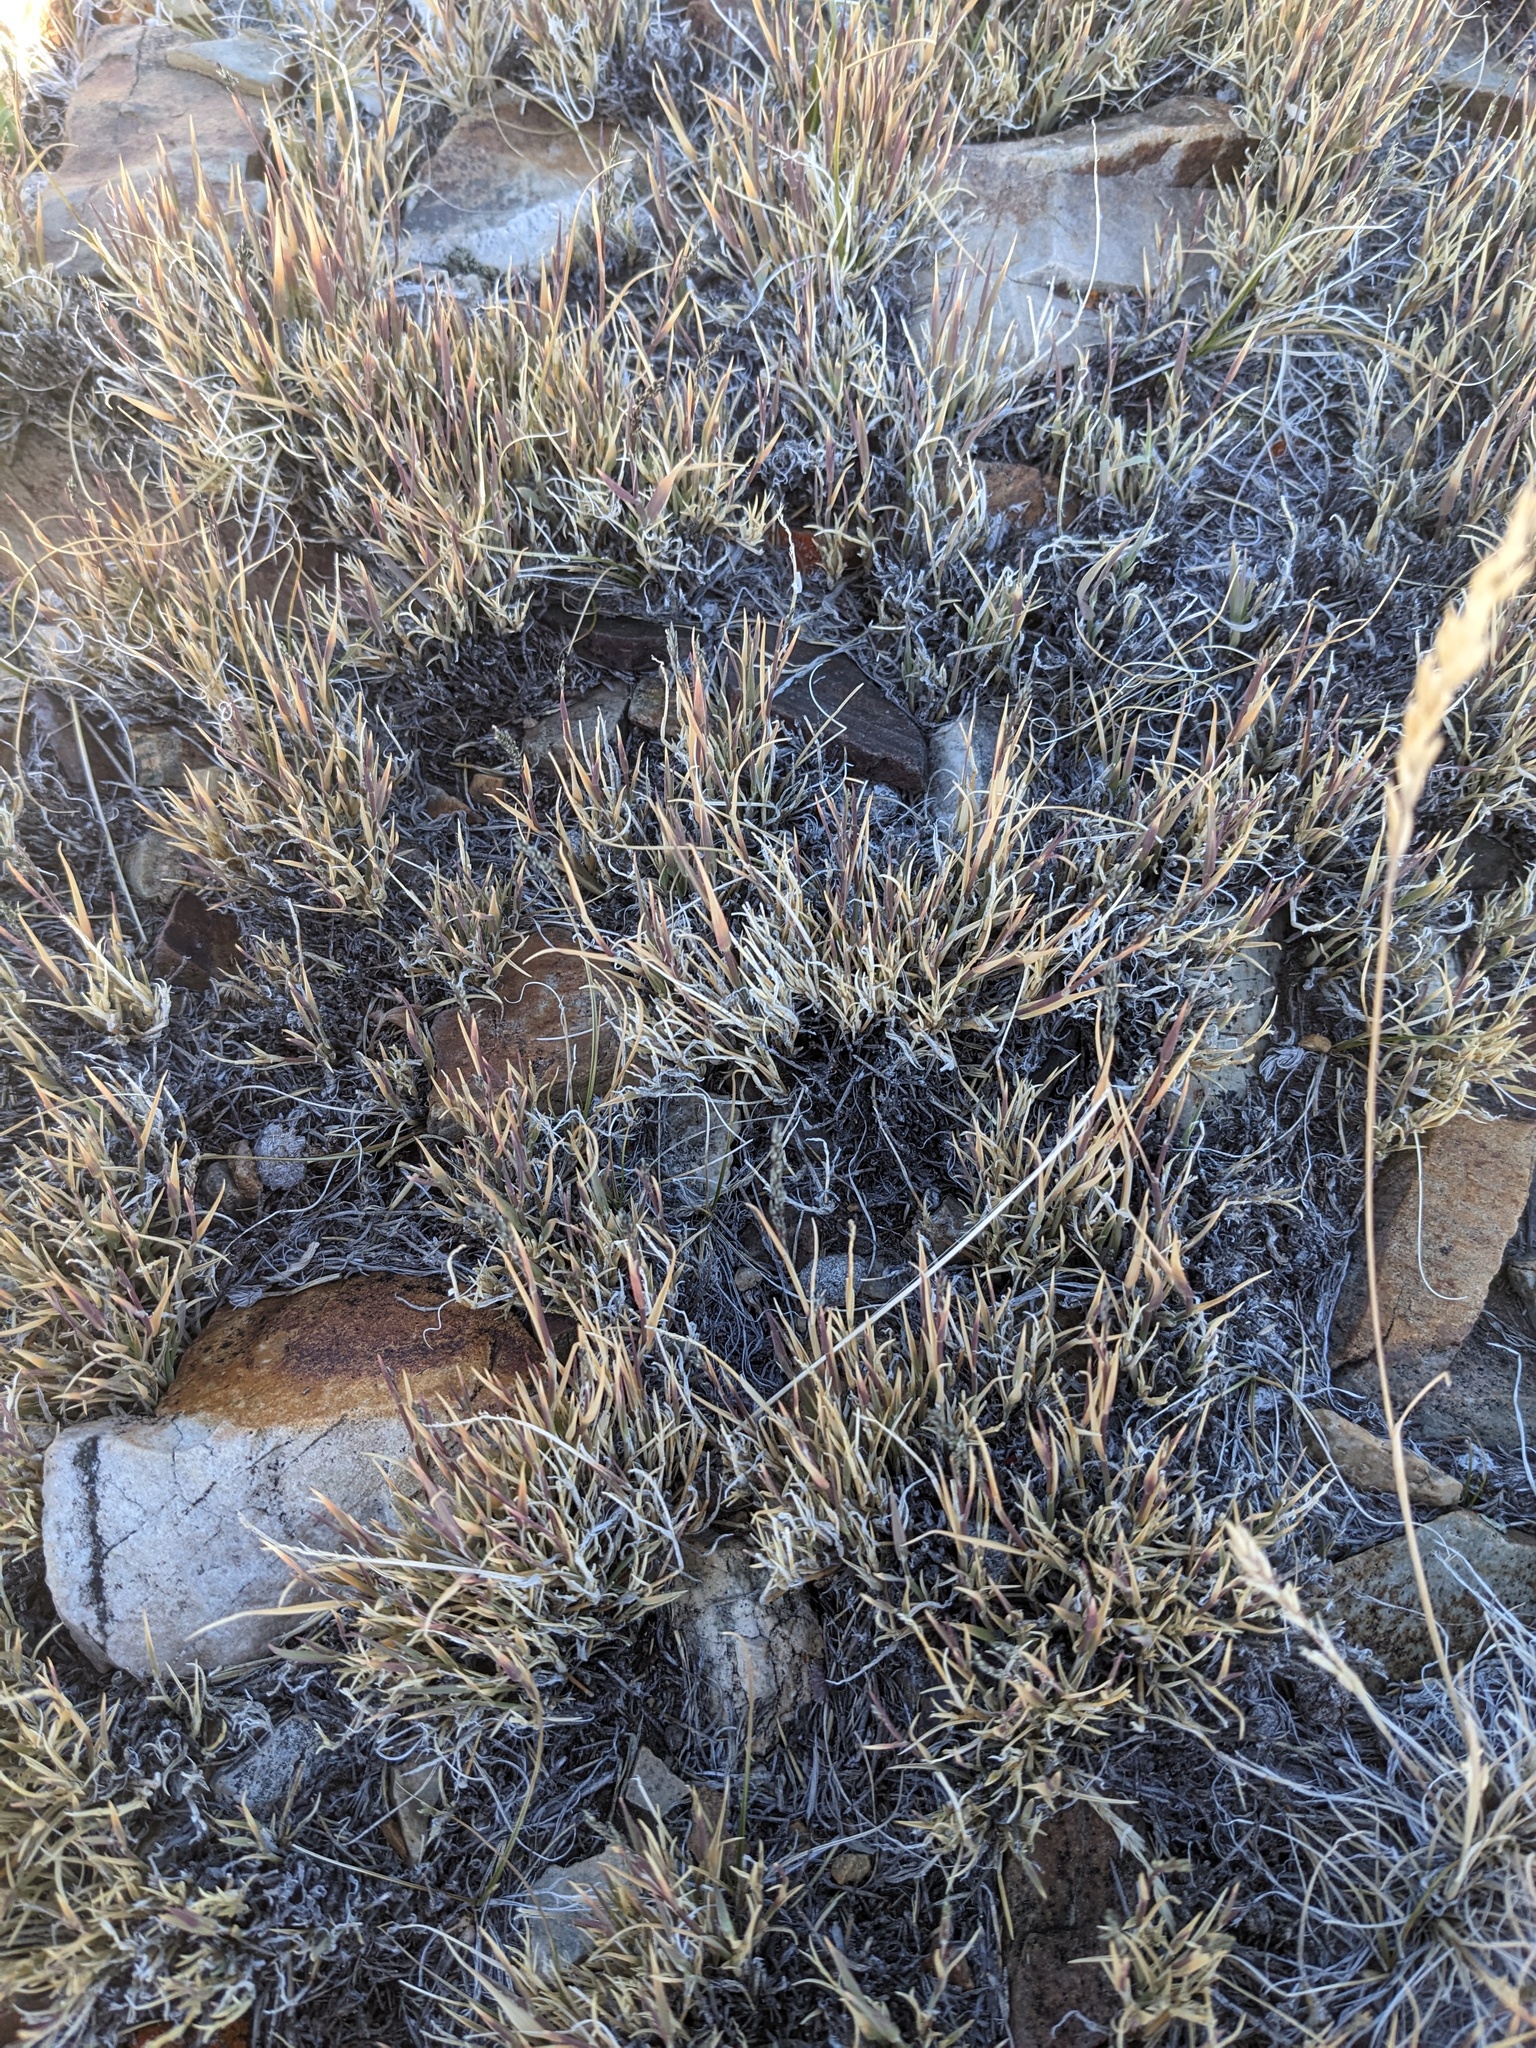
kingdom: Plantae
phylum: Tracheophyta
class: Liliopsida
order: Poales
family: Poaceae
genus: Muhlenbergia
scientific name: Muhlenbergia richardsonis
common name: Mat muhly
